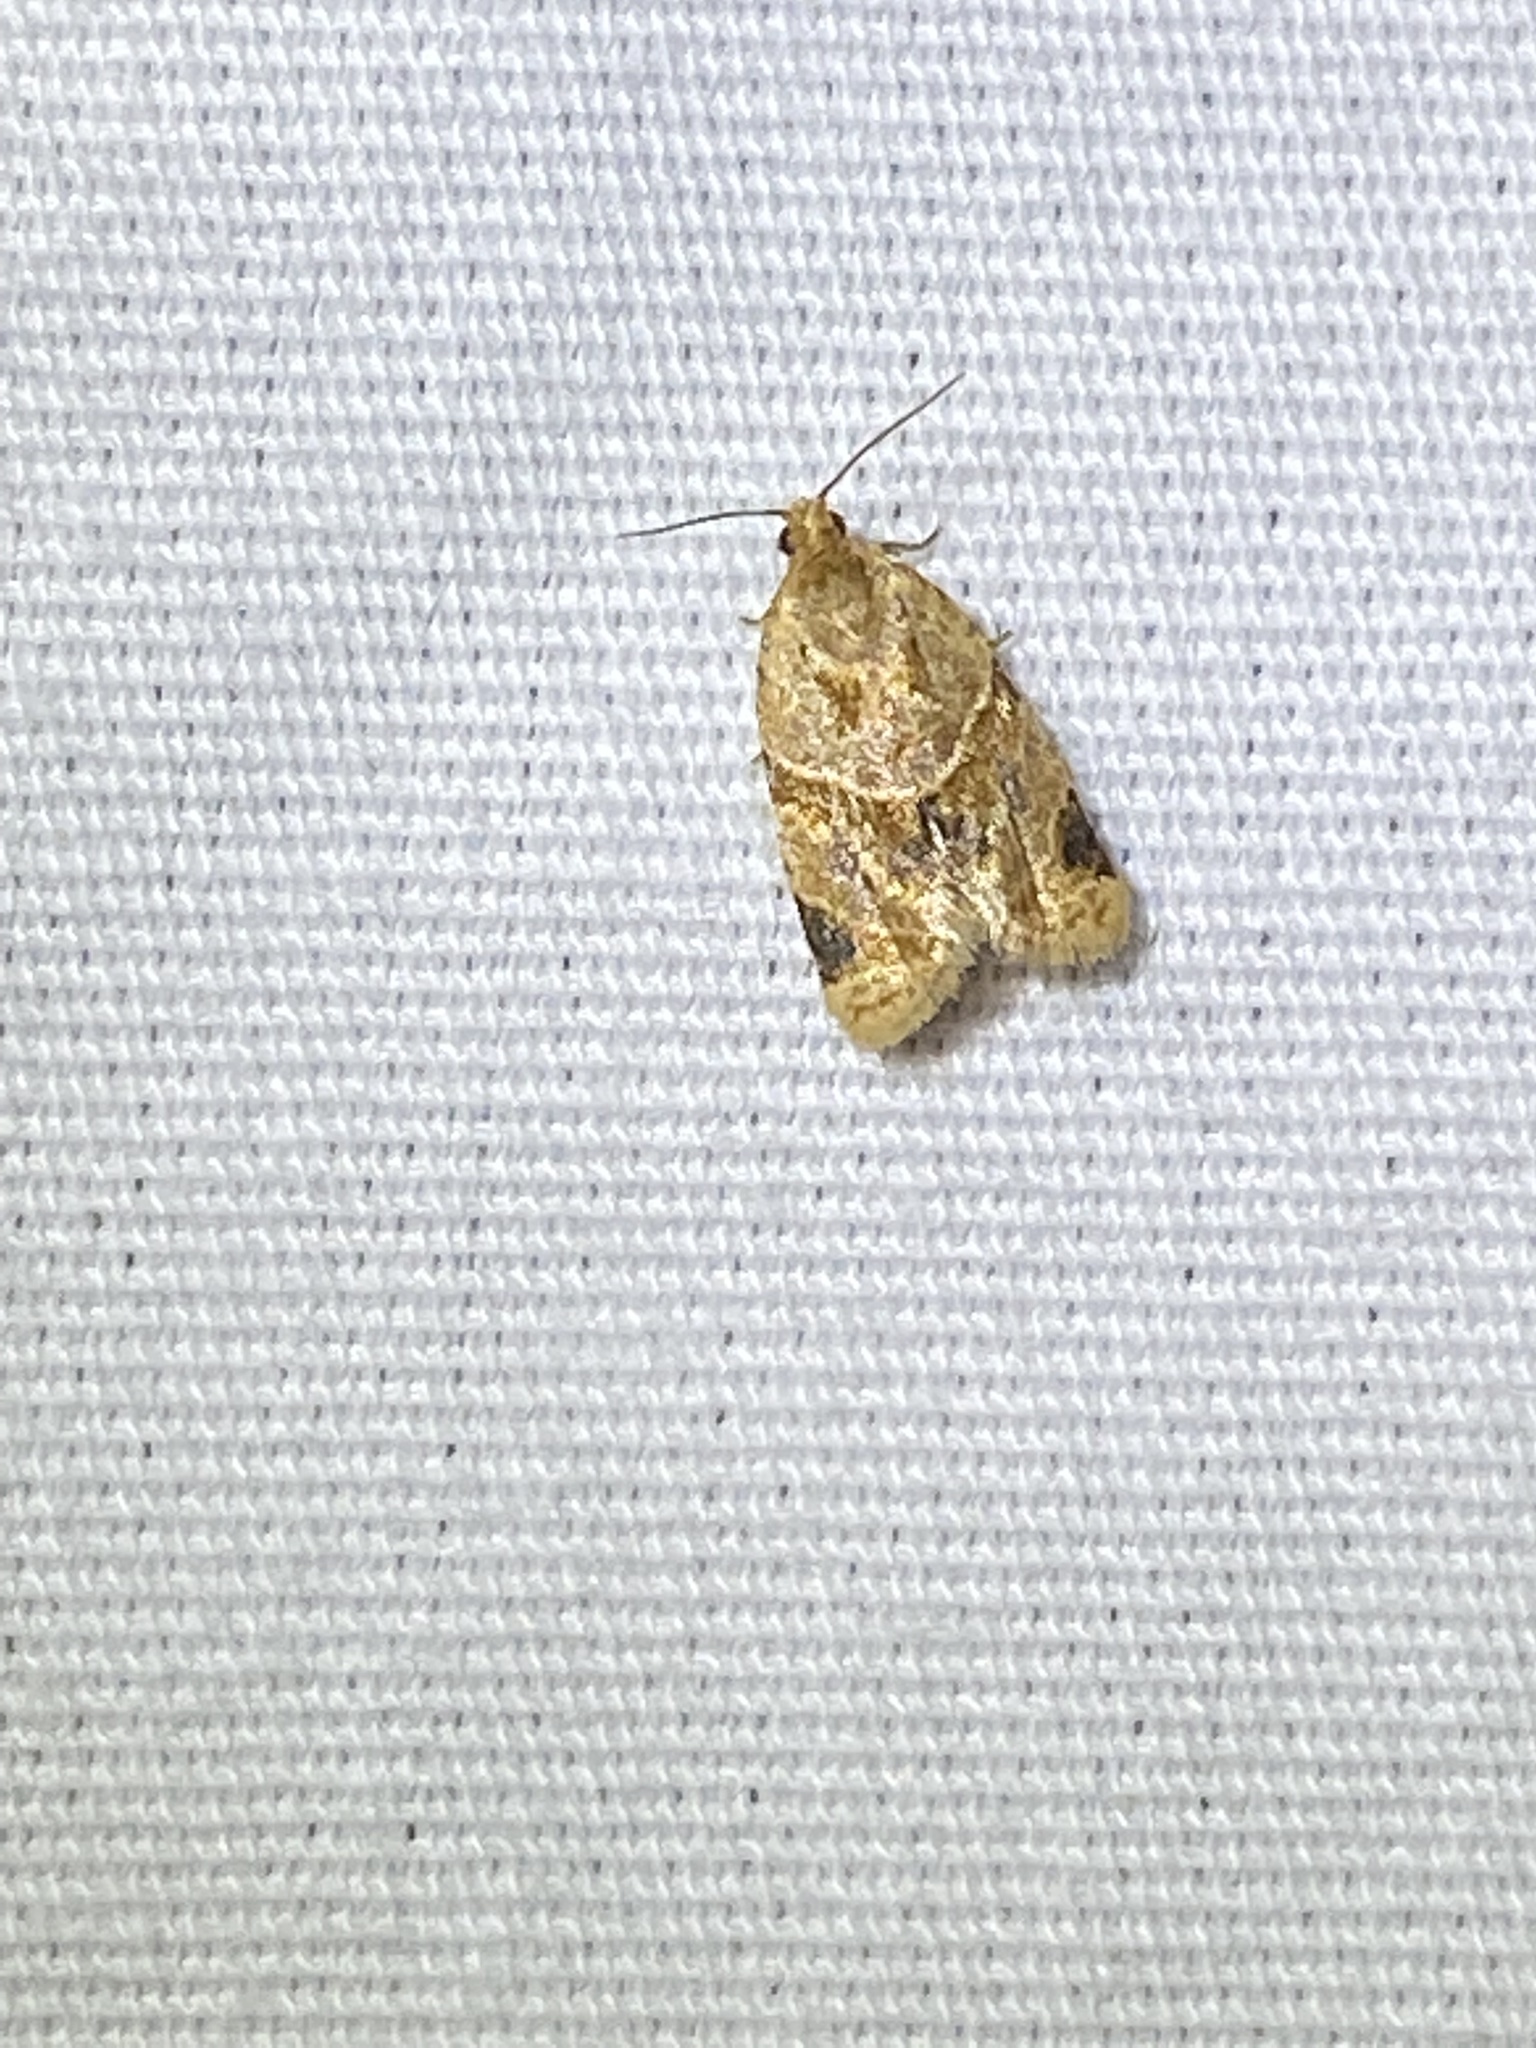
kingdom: Animalia
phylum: Arthropoda
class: Insecta
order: Lepidoptera
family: Tortricidae
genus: Clepsis
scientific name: Clepsis peritana
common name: Garden tortrix
